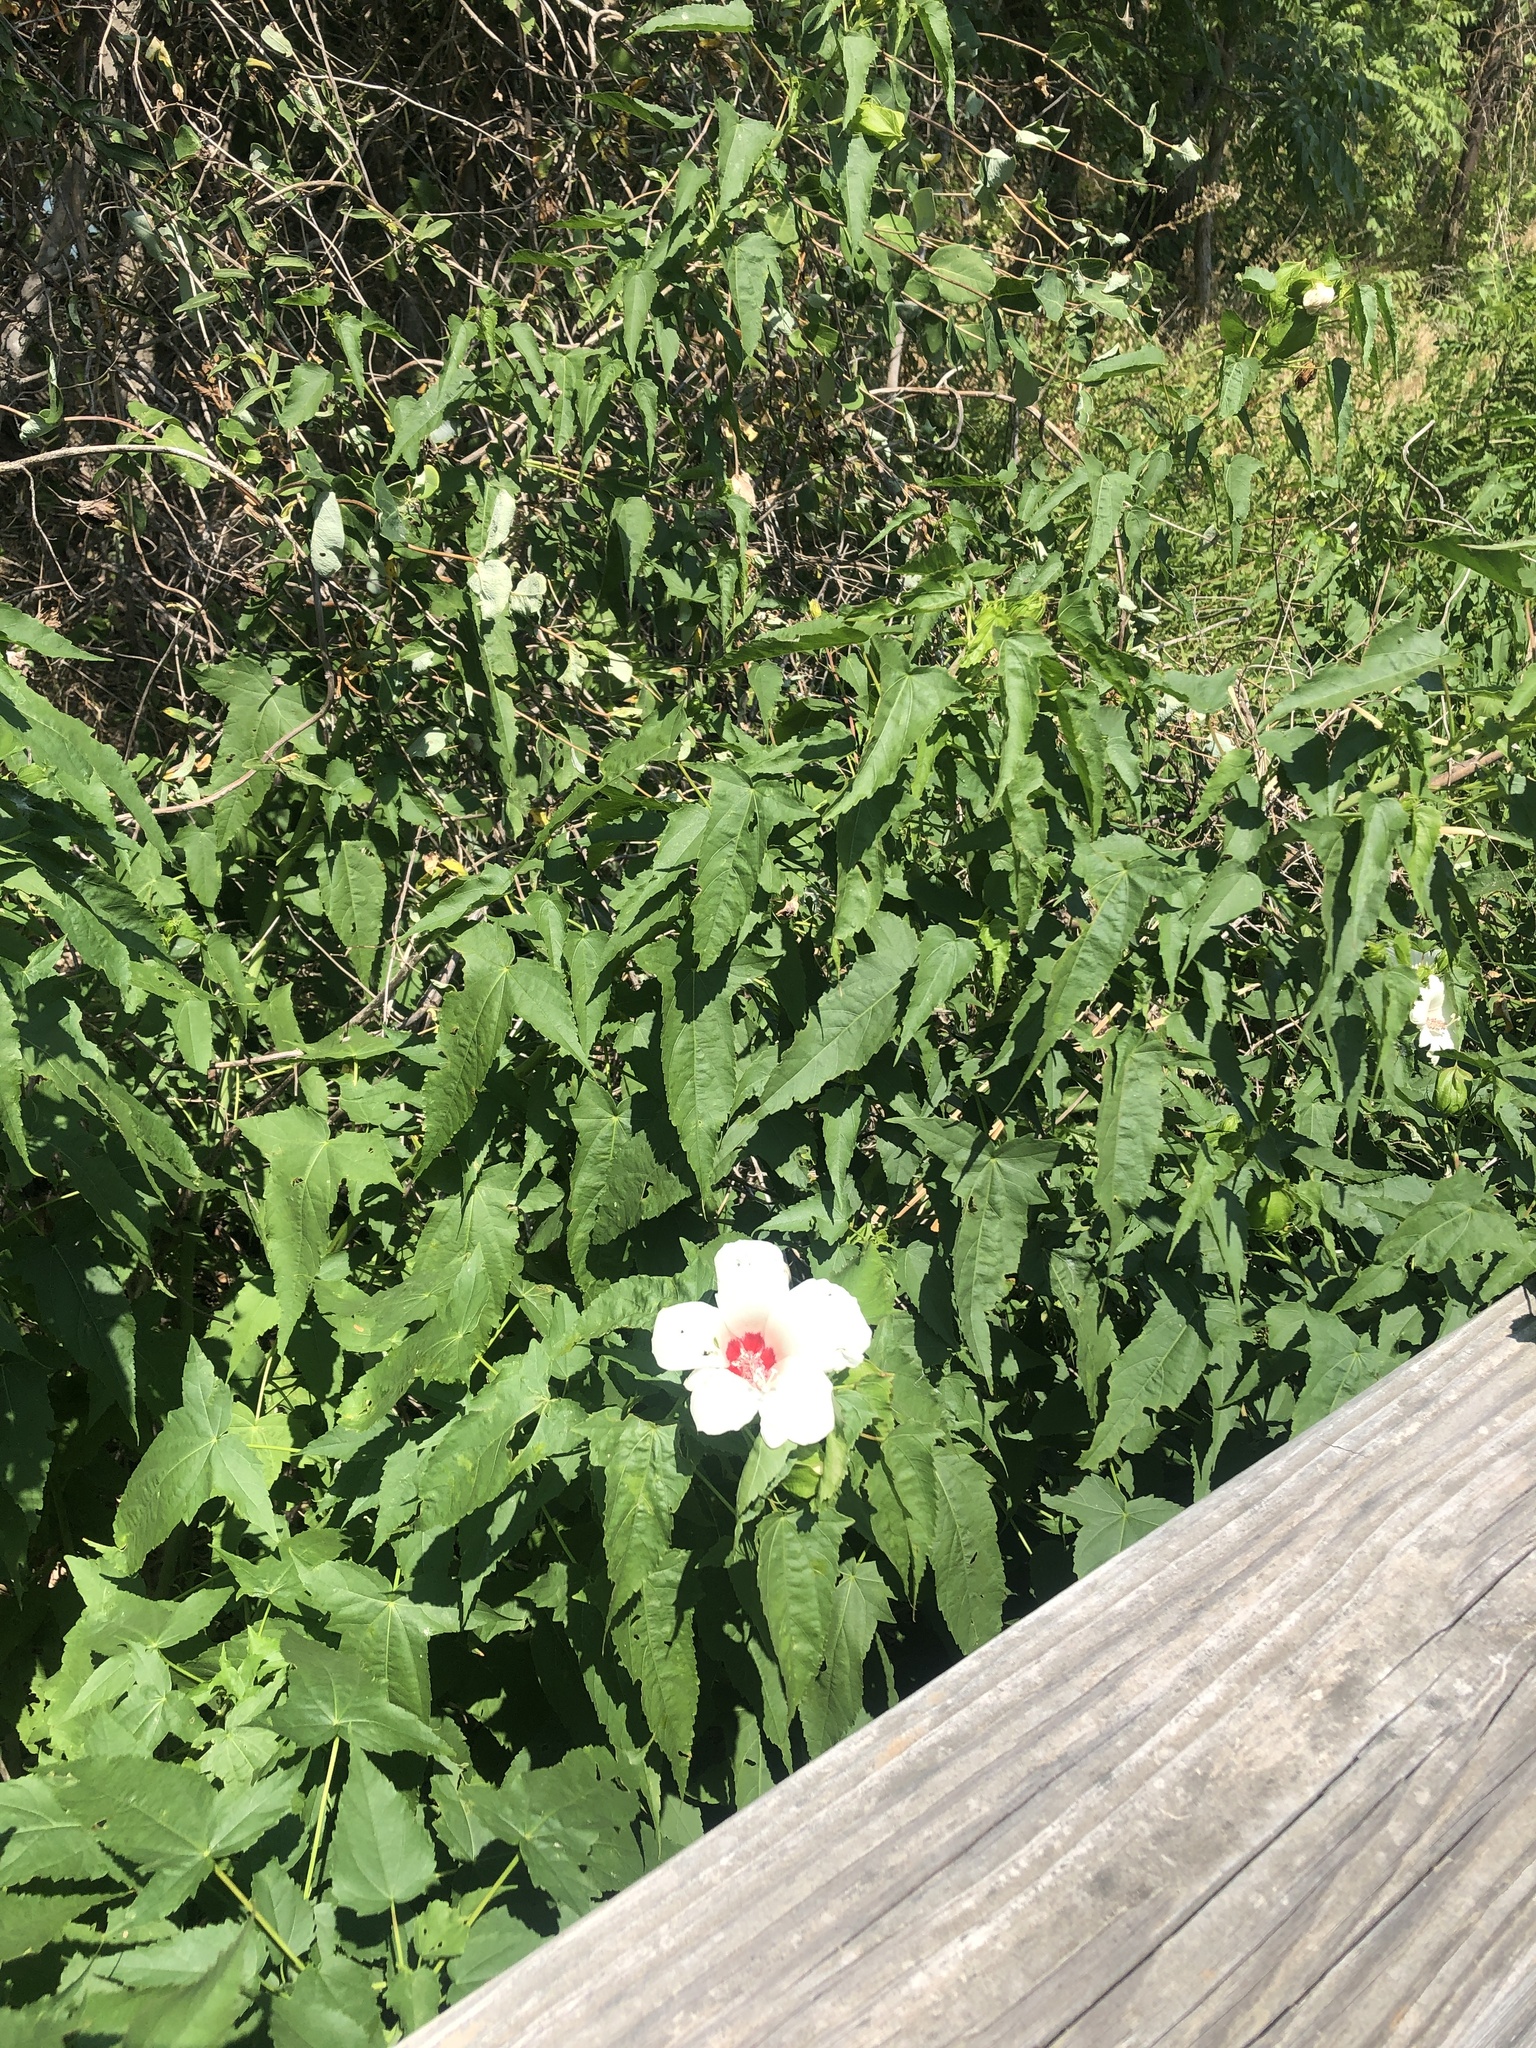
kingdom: Plantae
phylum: Tracheophyta
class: Magnoliopsida
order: Malvales
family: Malvaceae
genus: Hibiscus
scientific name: Hibiscus laevis
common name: Scarlet rose-mallow
